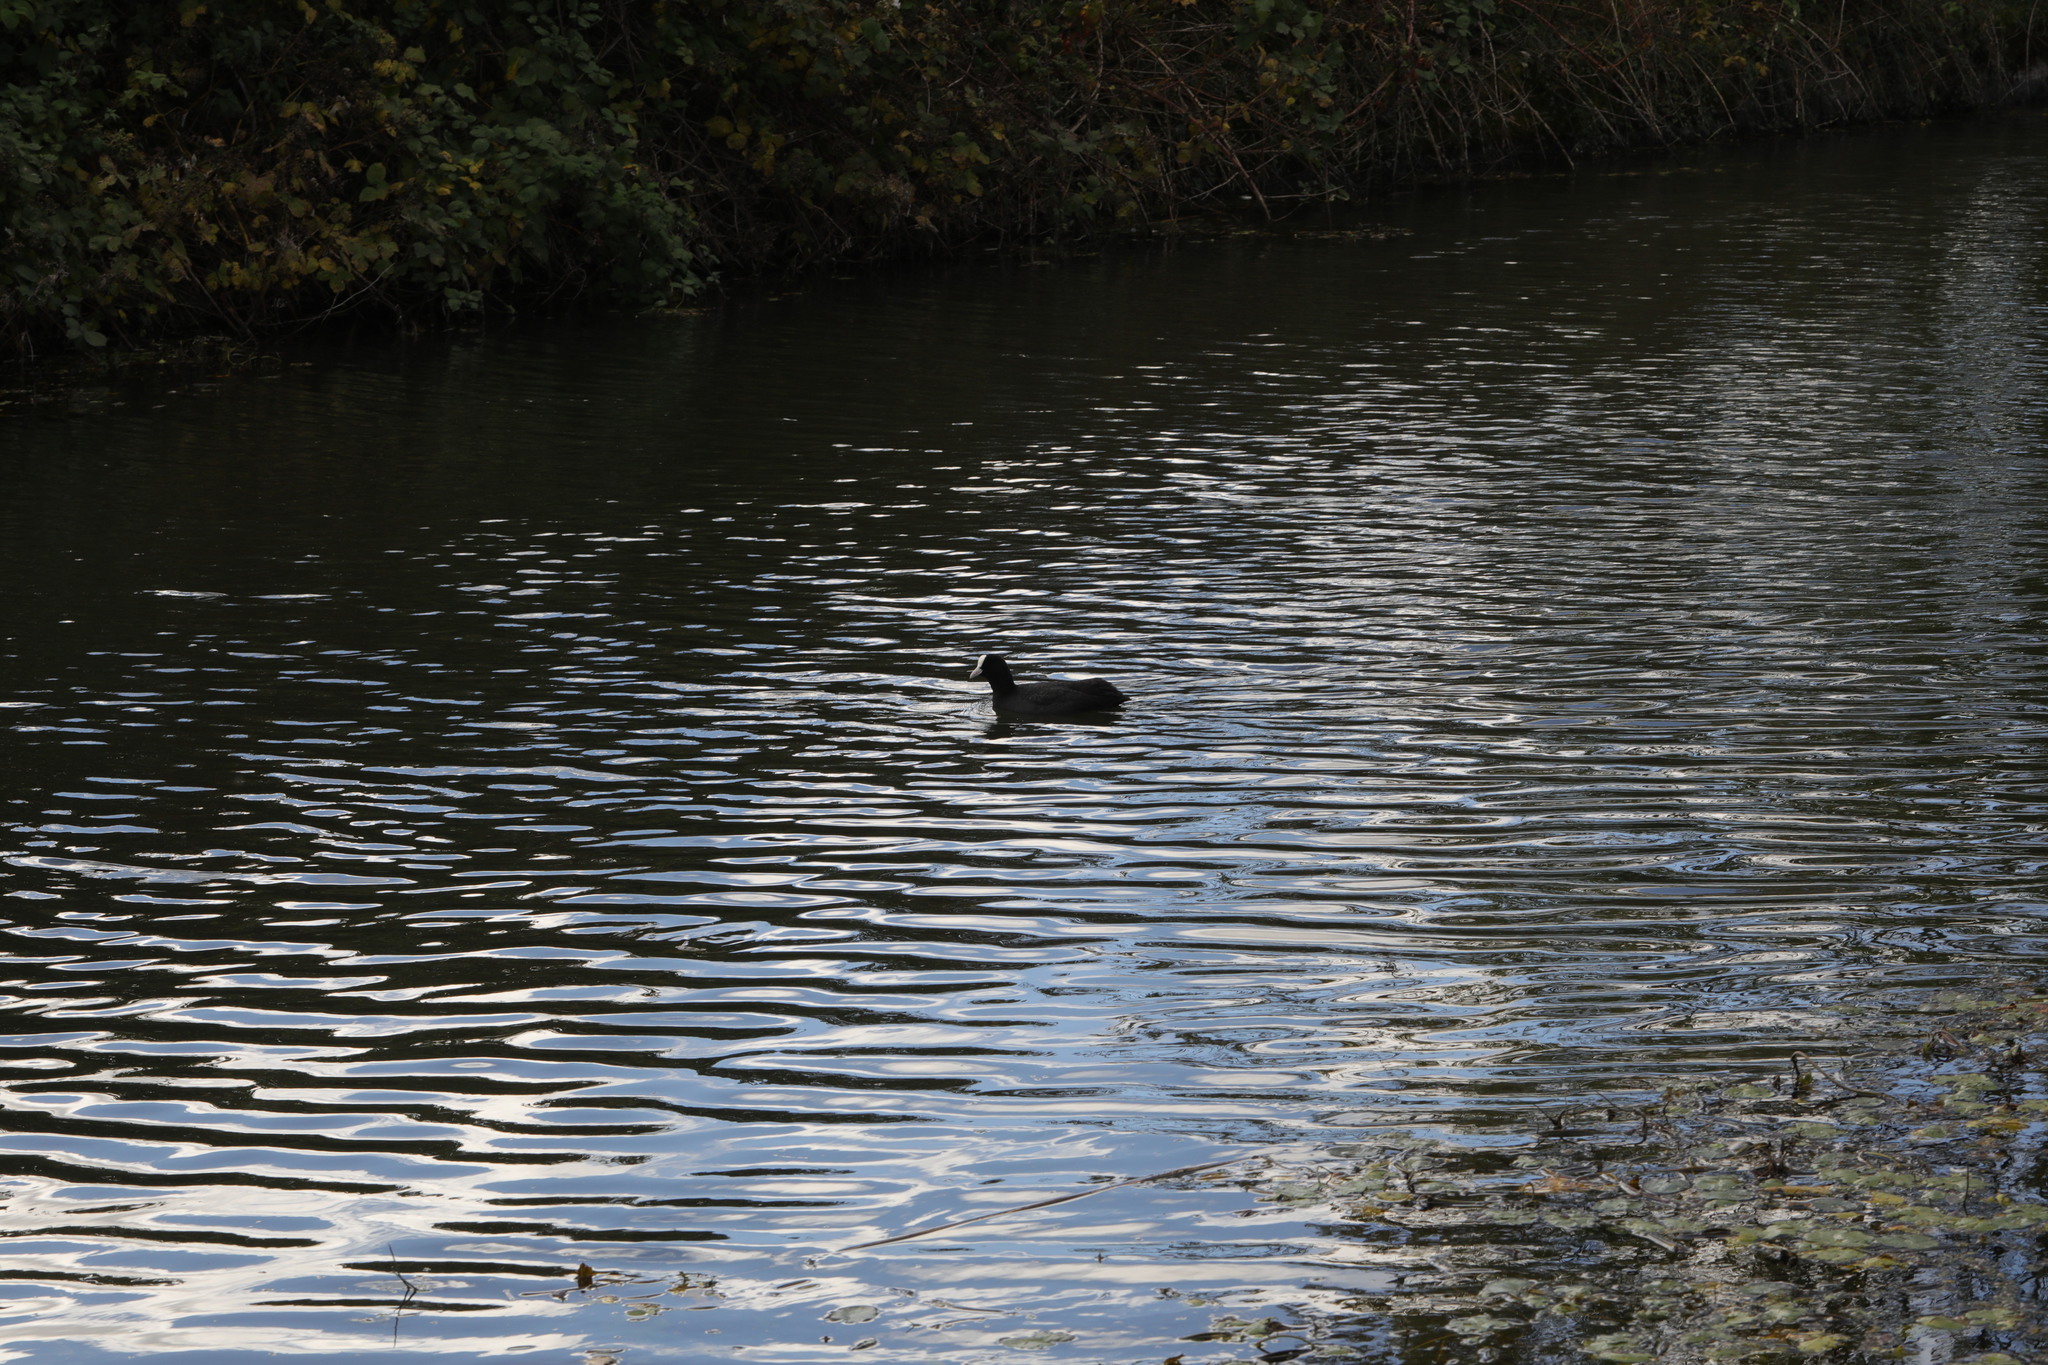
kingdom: Animalia
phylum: Chordata
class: Aves
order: Gruiformes
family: Rallidae
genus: Fulica
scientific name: Fulica atra
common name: Eurasian coot
